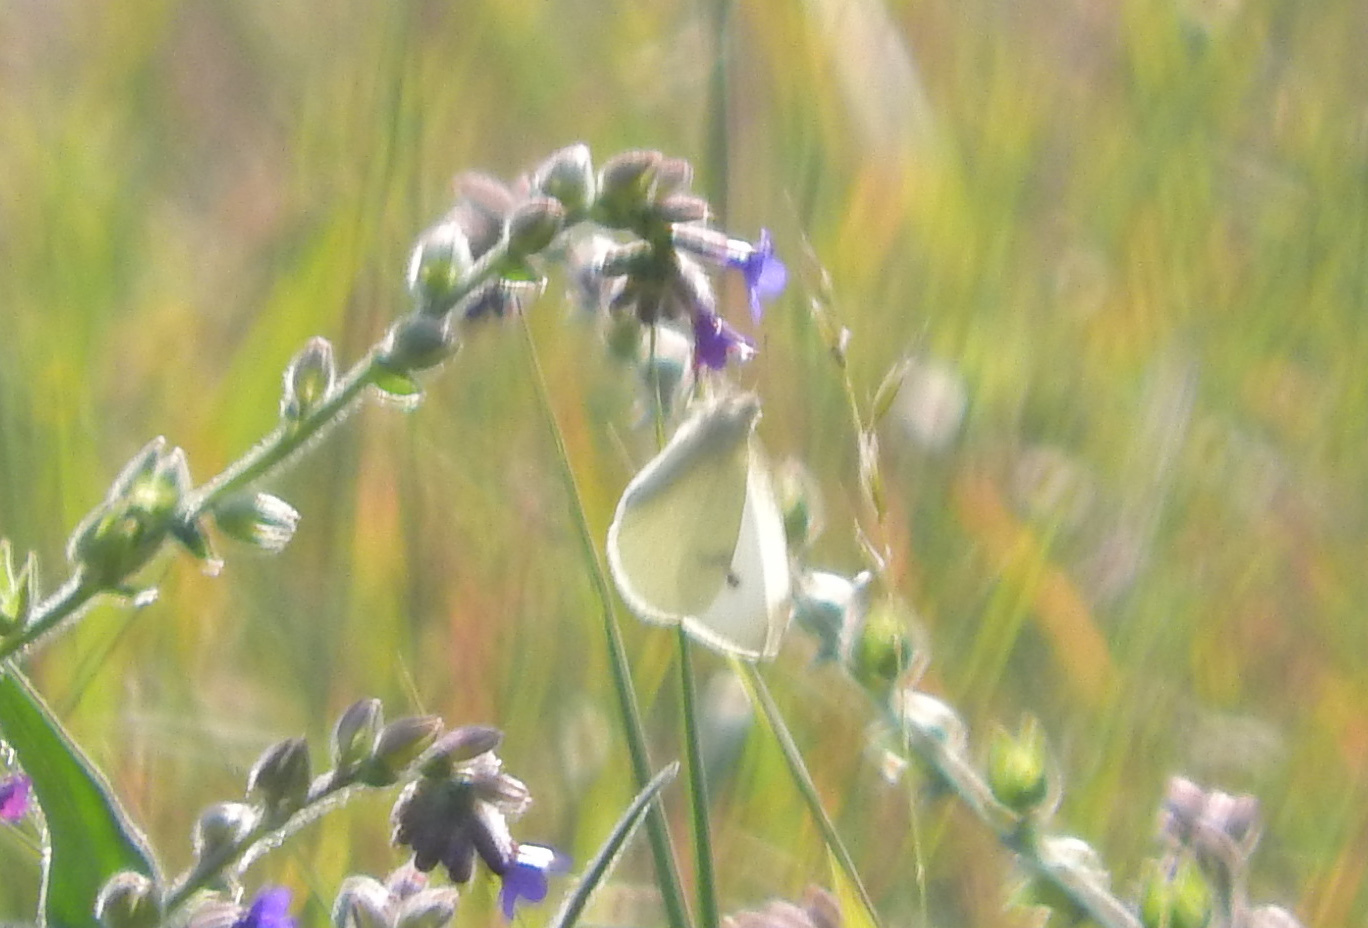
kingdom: Animalia
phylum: Arthropoda
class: Insecta
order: Lepidoptera
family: Pieridae
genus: Pieris
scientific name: Pieris rapae
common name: Small white
